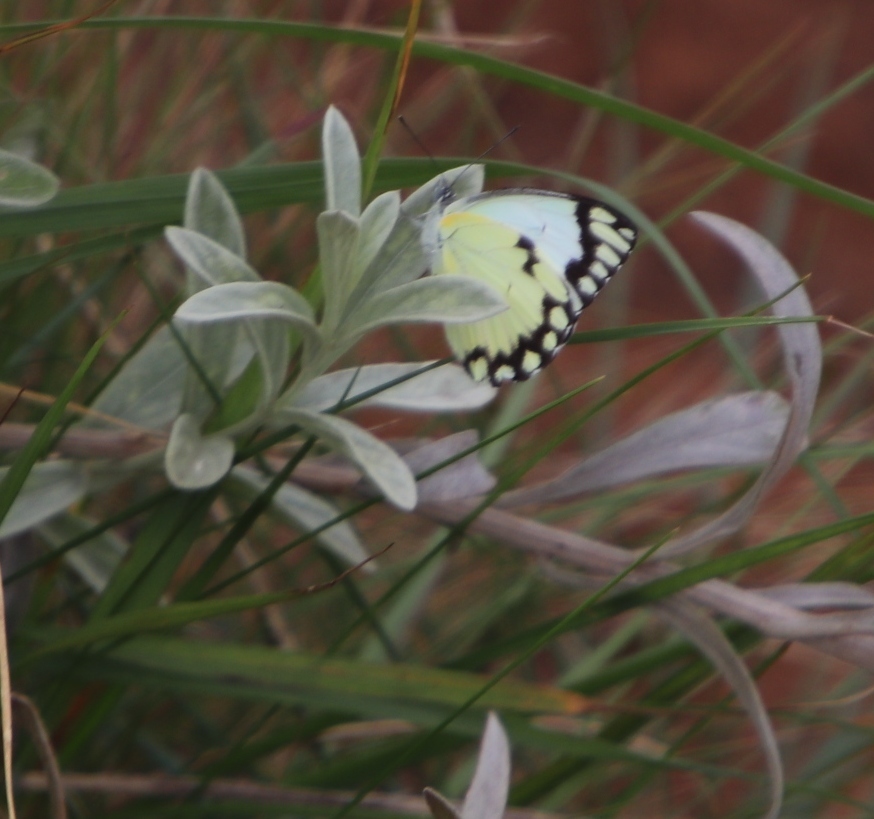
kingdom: Animalia
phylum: Arthropoda
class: Insecta
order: Lepidoptera
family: Pieridae
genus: Belenois
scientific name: Belenois creona
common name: African caper white
